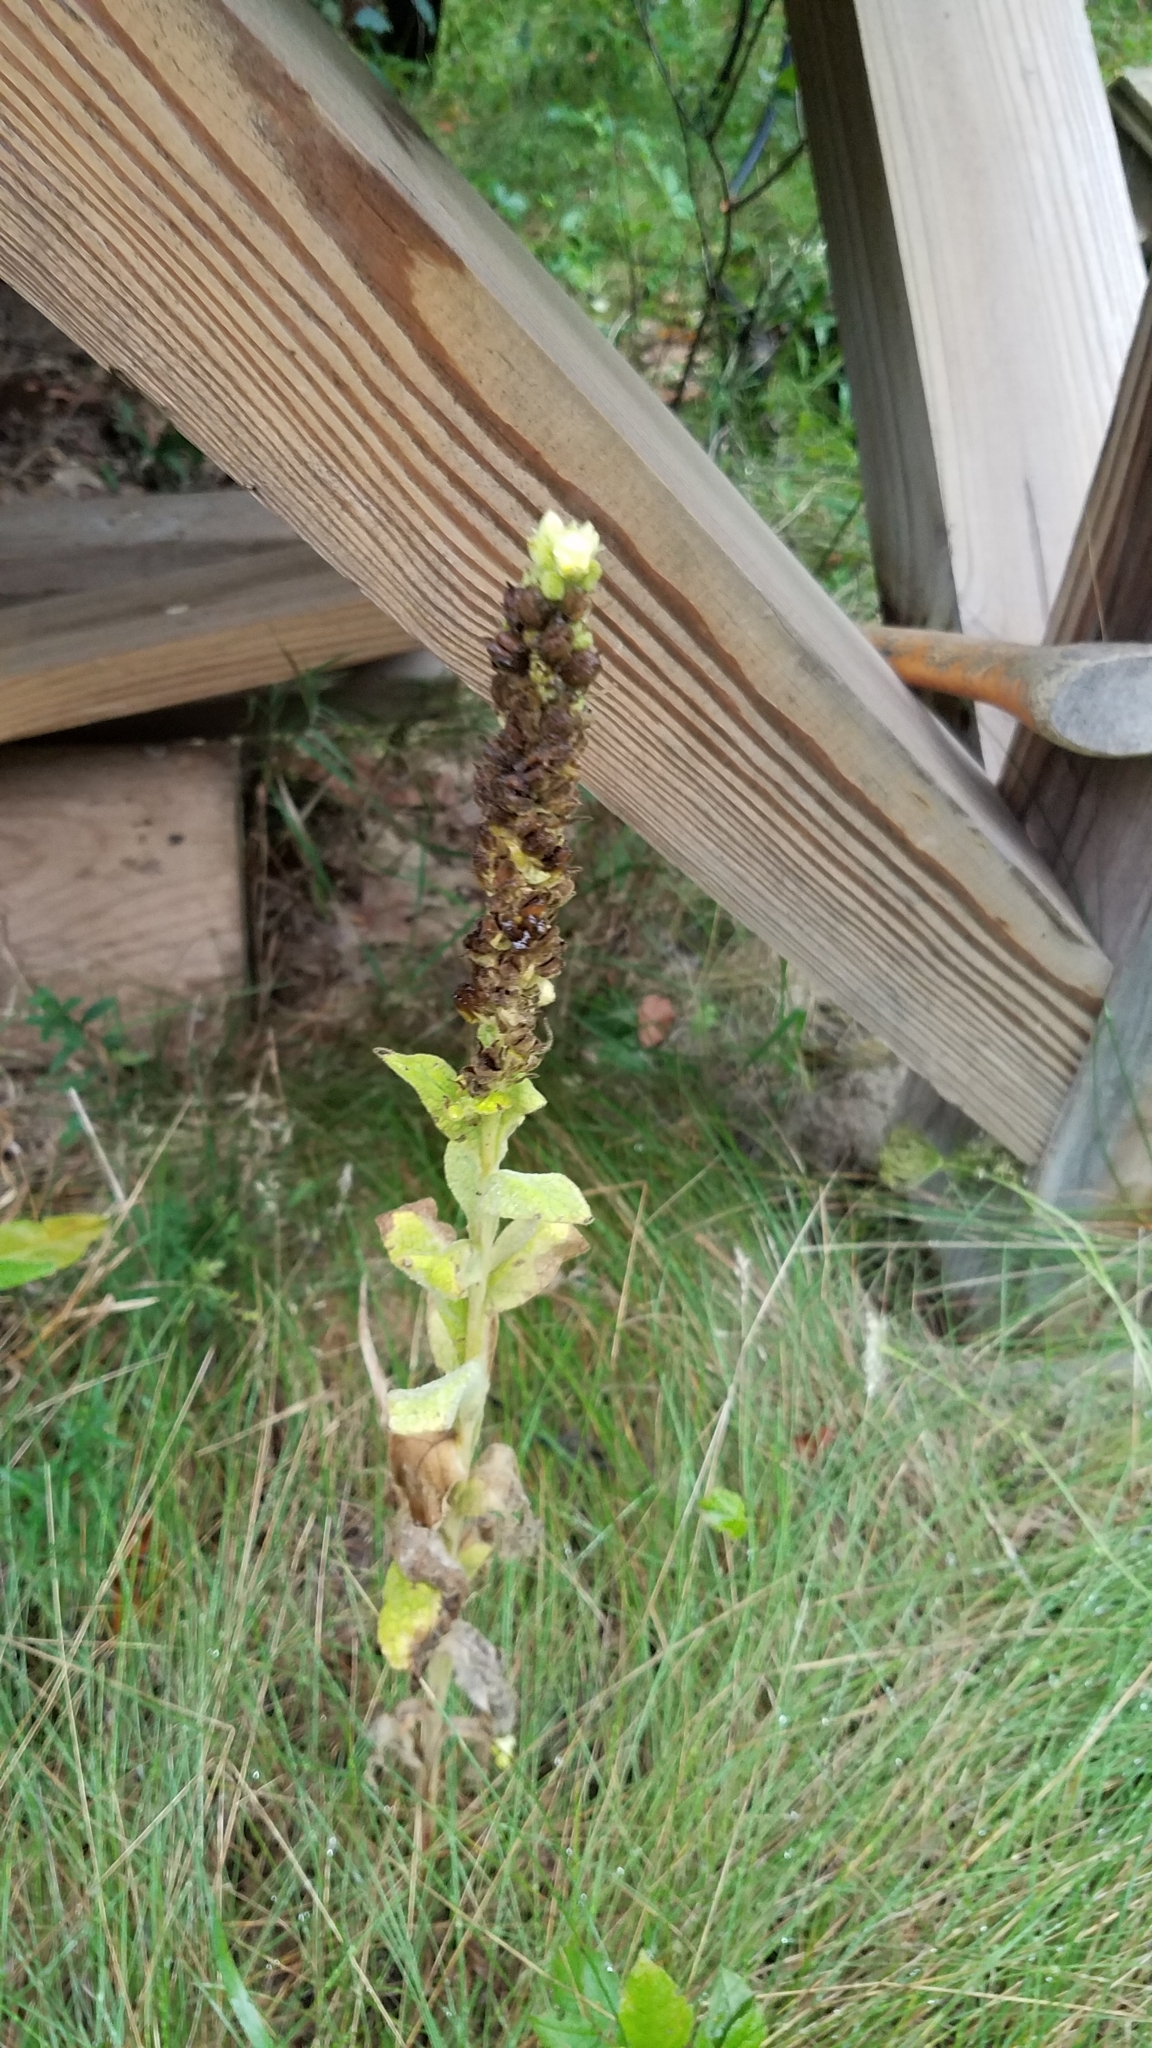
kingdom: Plantae
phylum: Tracheophyta
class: Magnoliopsida
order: Lamiales
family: Scrophulariaceae
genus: Verbascum
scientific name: Verbascum thapsus
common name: Common mullein
